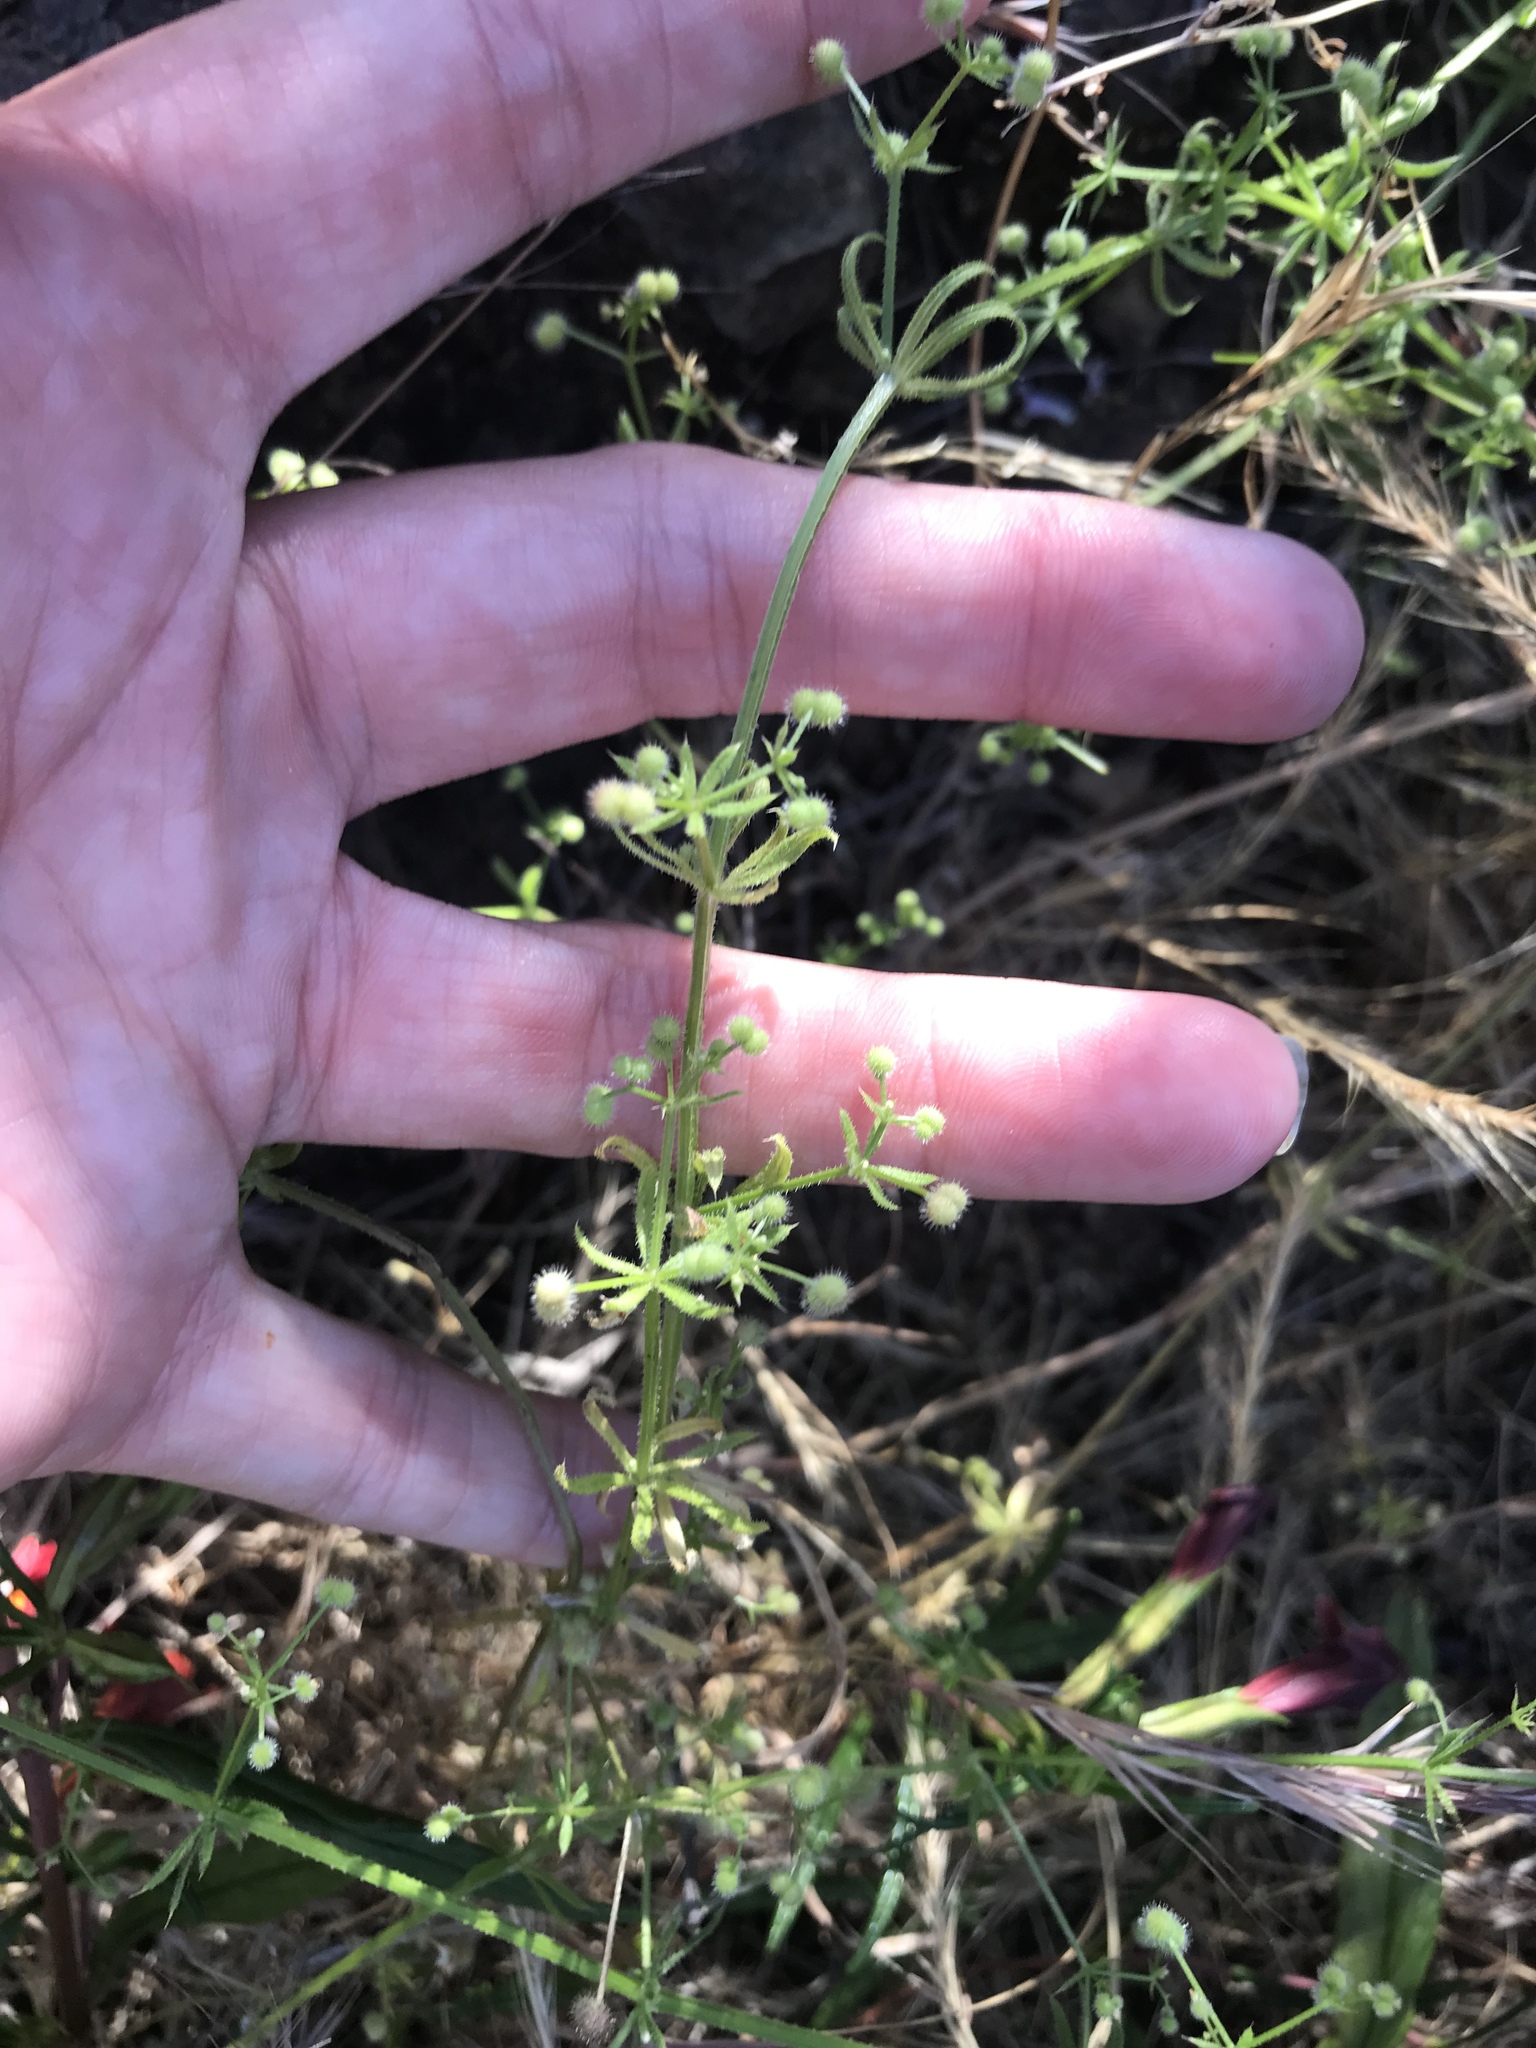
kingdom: Plantae
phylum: Tracheophyta
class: Magnoliopsida
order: Gentianales
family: Rubiaceae
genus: Galium
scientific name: Galium aparine
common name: Cleavers
